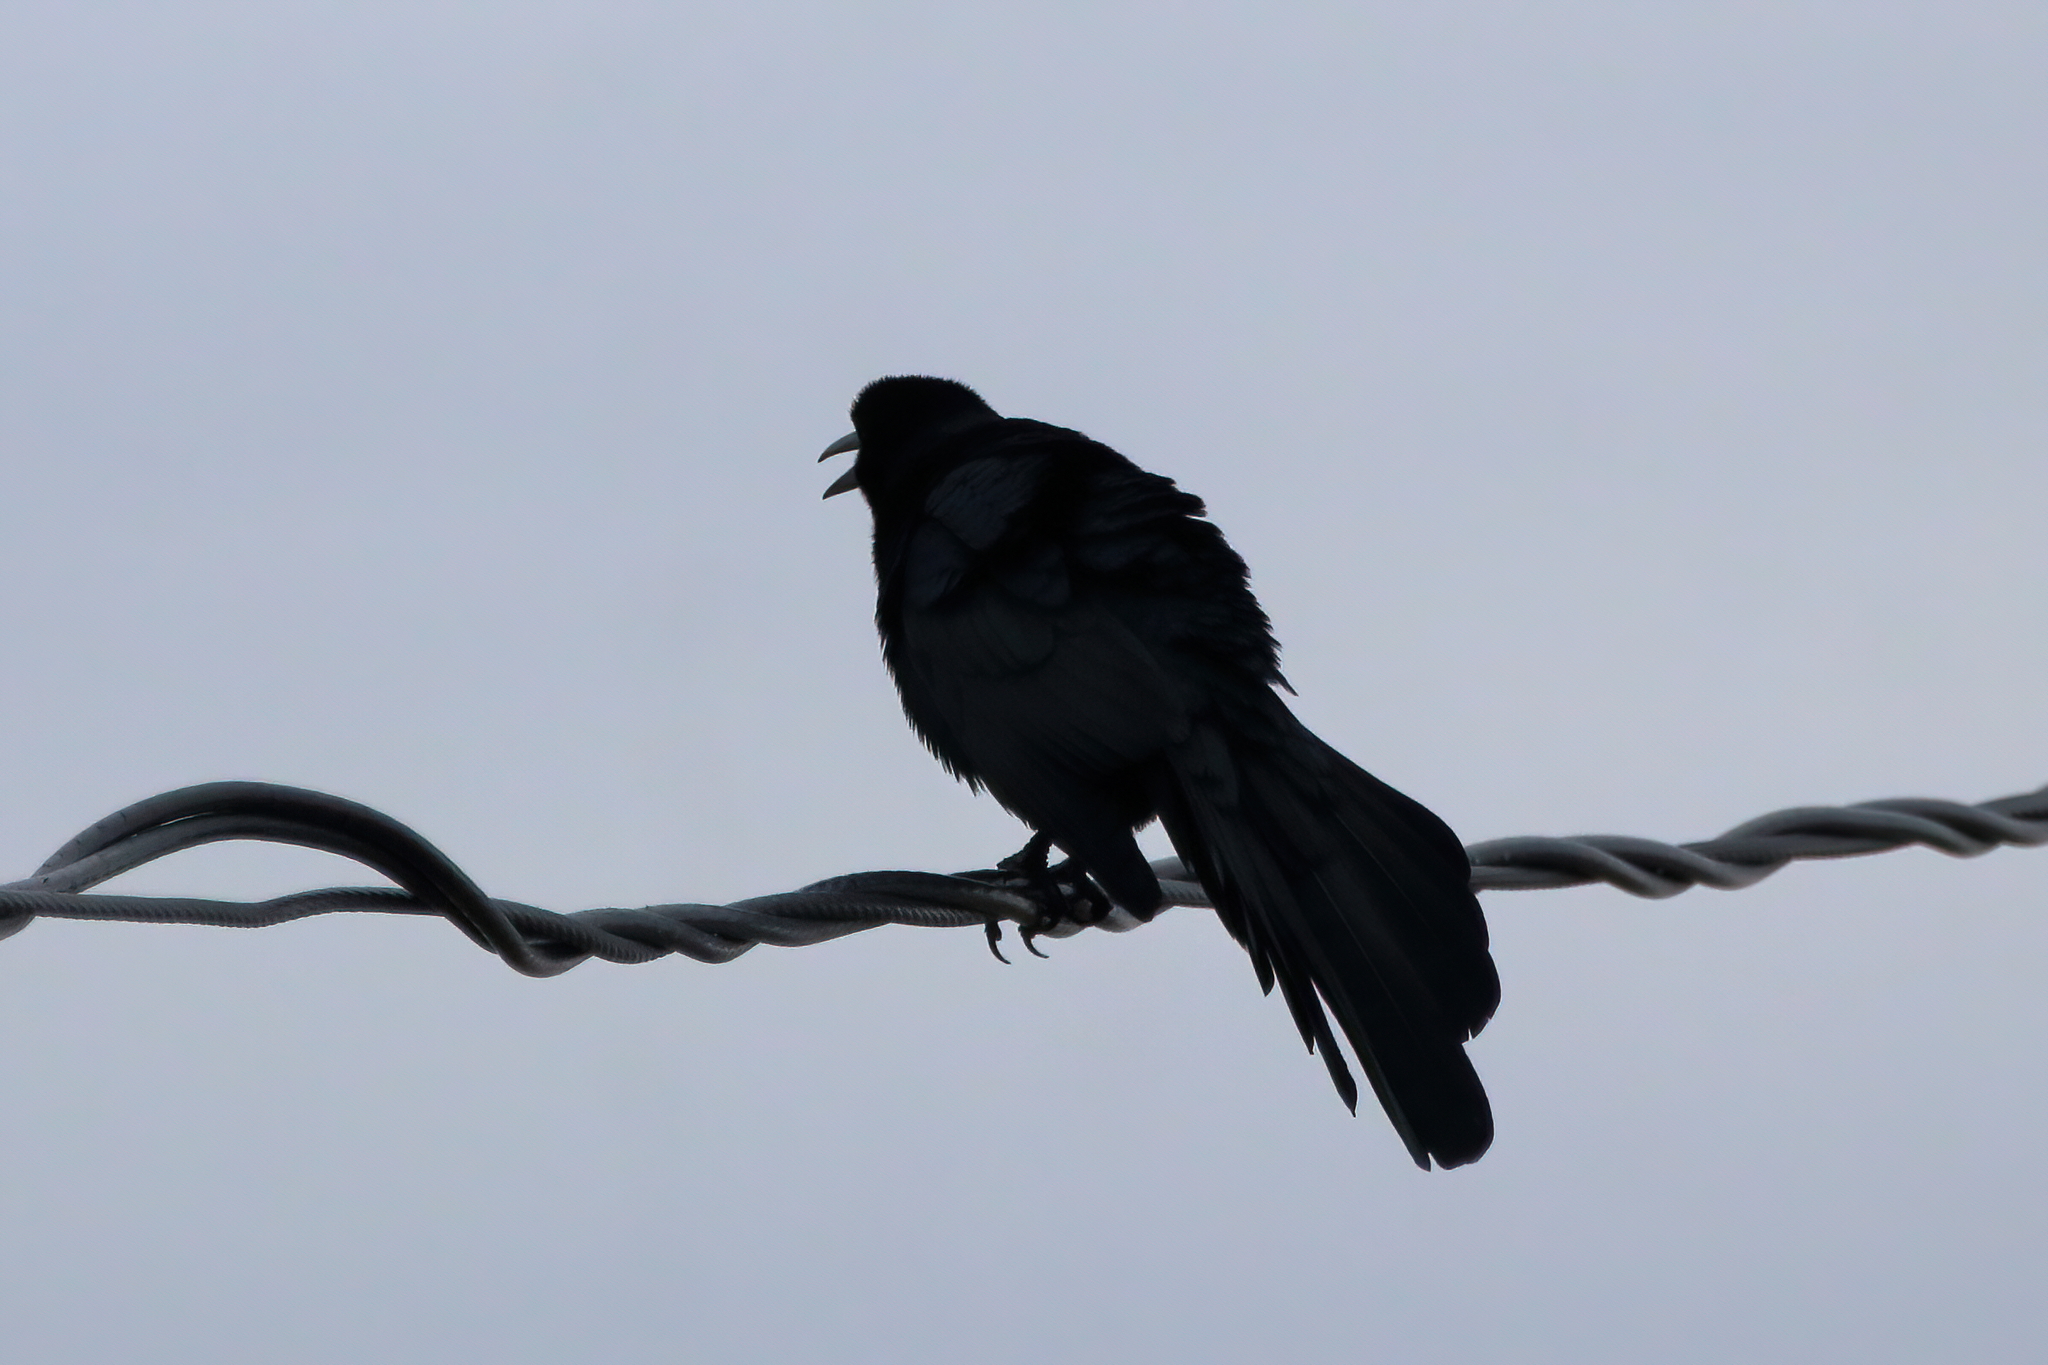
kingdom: Animalia
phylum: Chordata
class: Aves
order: Passeriformes
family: Icteridae
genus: Quiscalus
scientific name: Quiscalus mexicanus
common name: Great-tailed grackle
